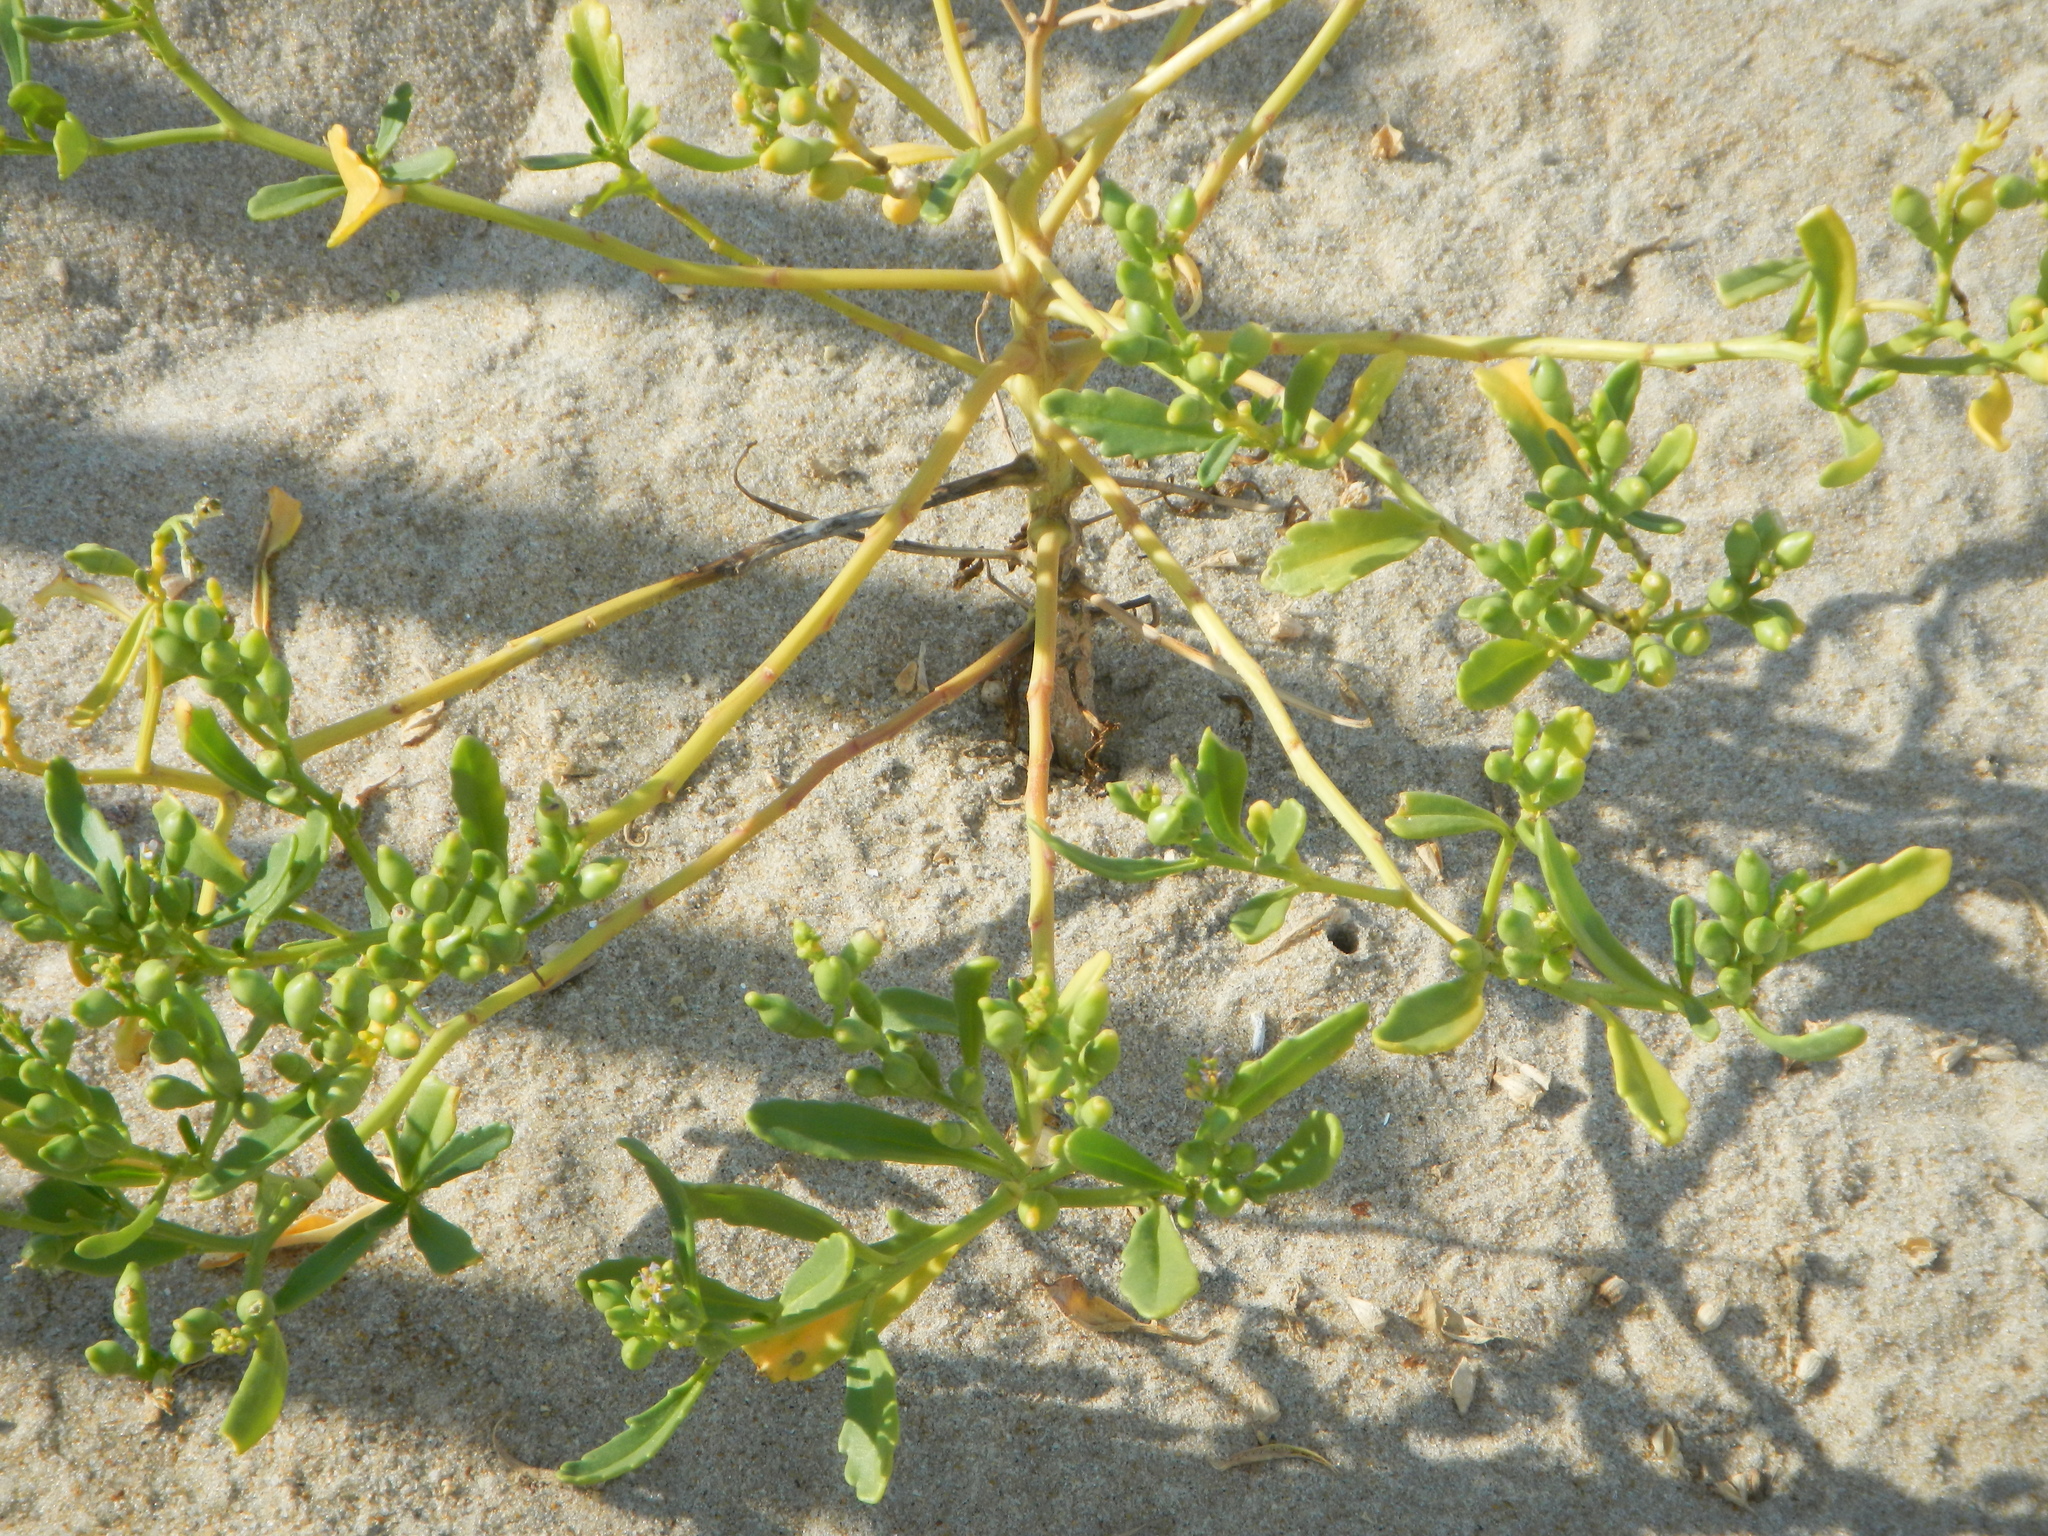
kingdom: Plantae
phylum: Tracheophyta
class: Magnoliopsida
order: Brassicales
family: Brassicaceae
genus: Cakile
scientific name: Cakile edentula
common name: American sea rocket
